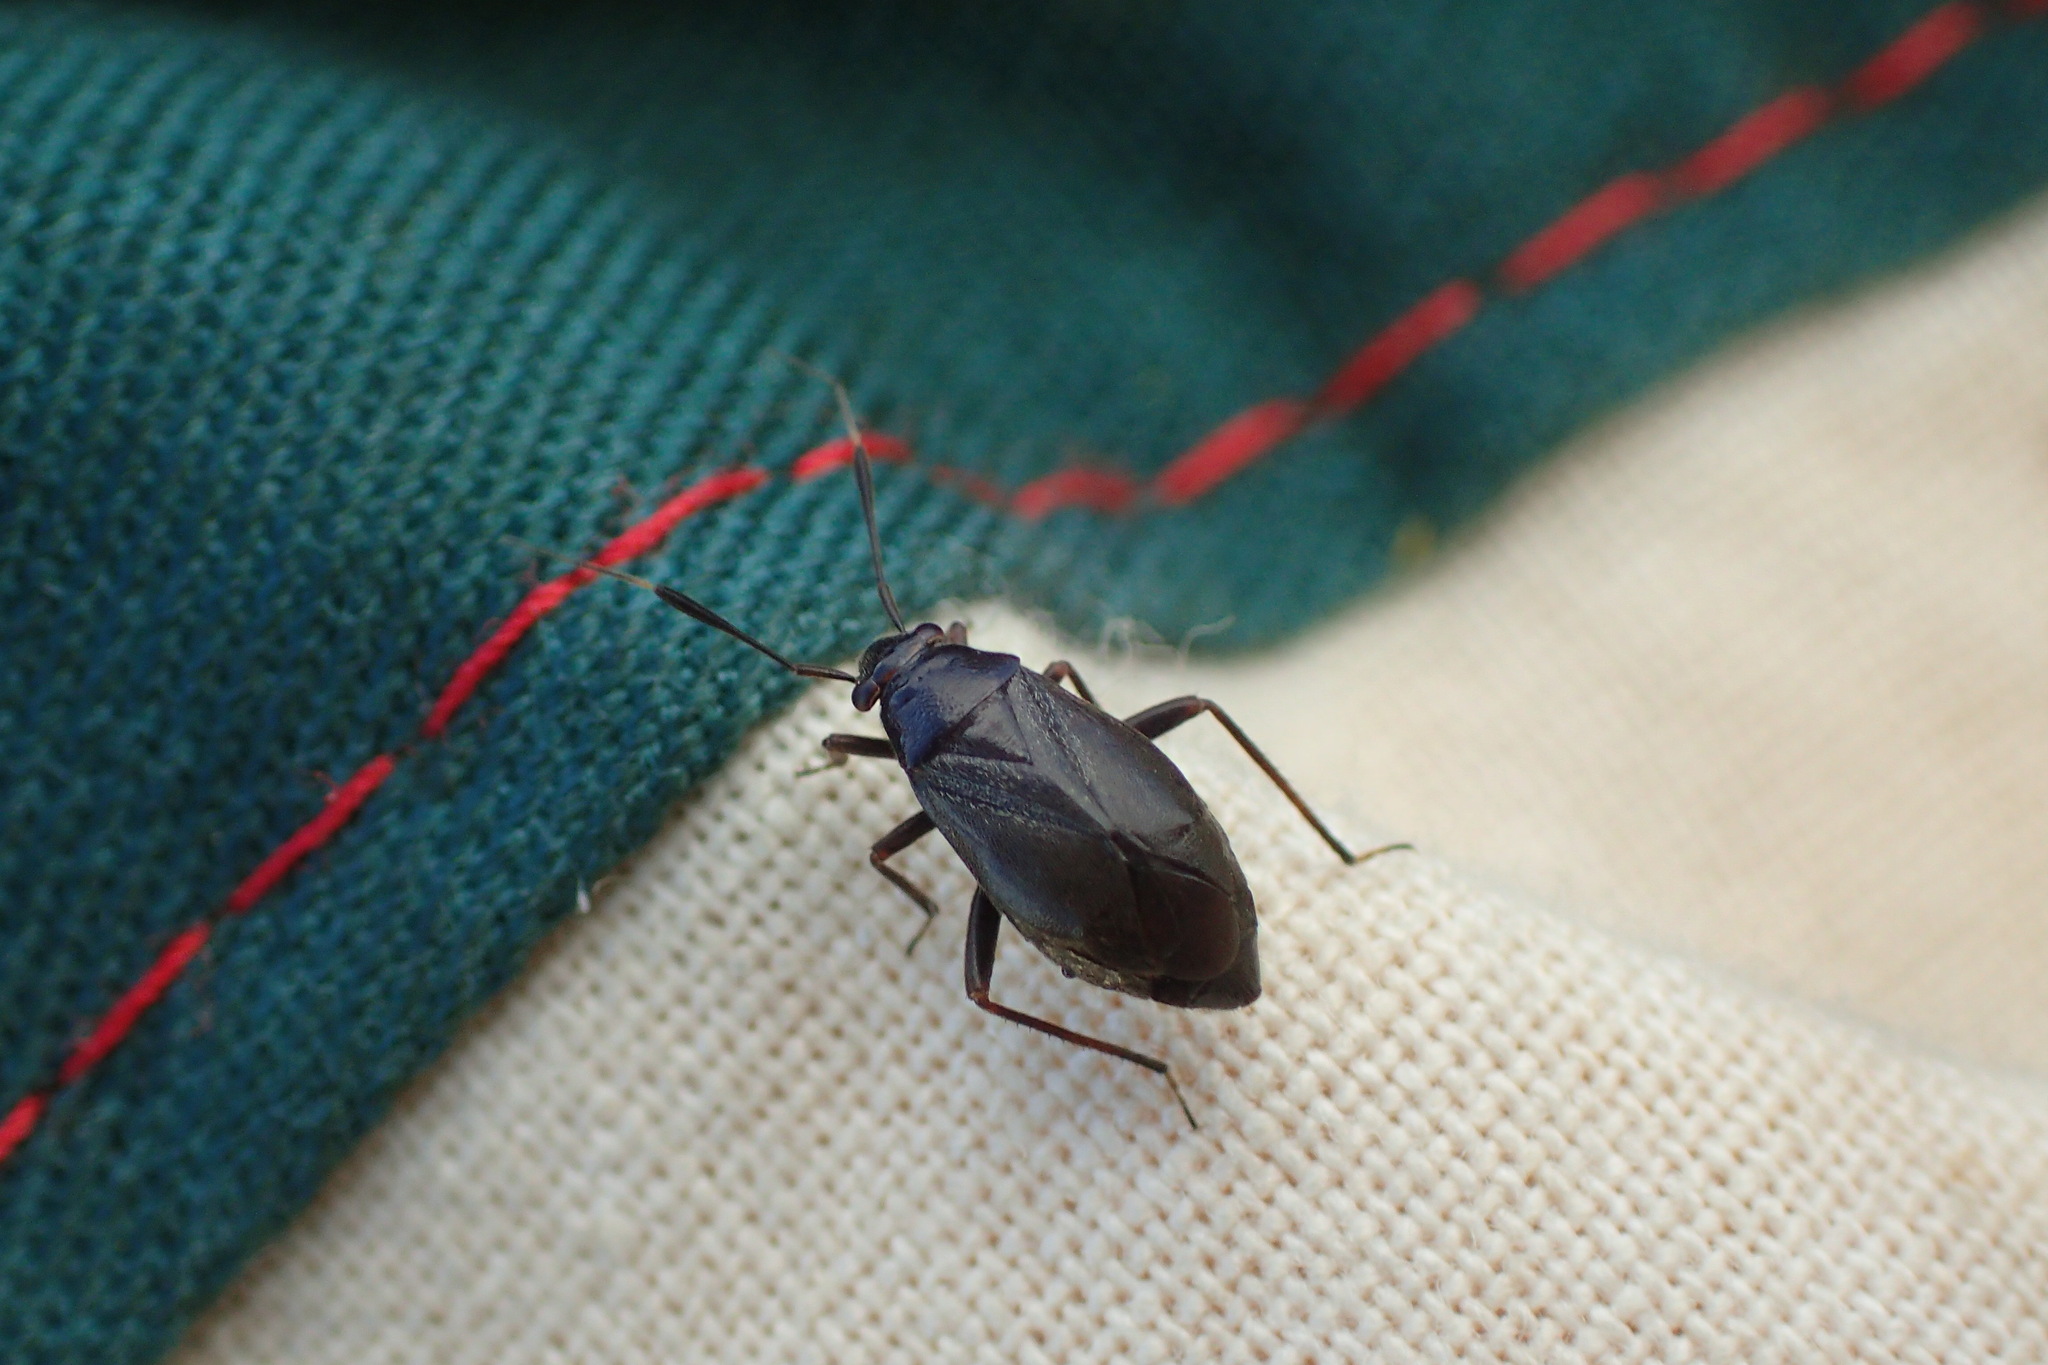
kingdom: Animalia
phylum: Arthropoda
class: Insecta
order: Hemiptera
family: Miridae
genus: Capsus
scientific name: Capsus ater
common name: Black plant bug
